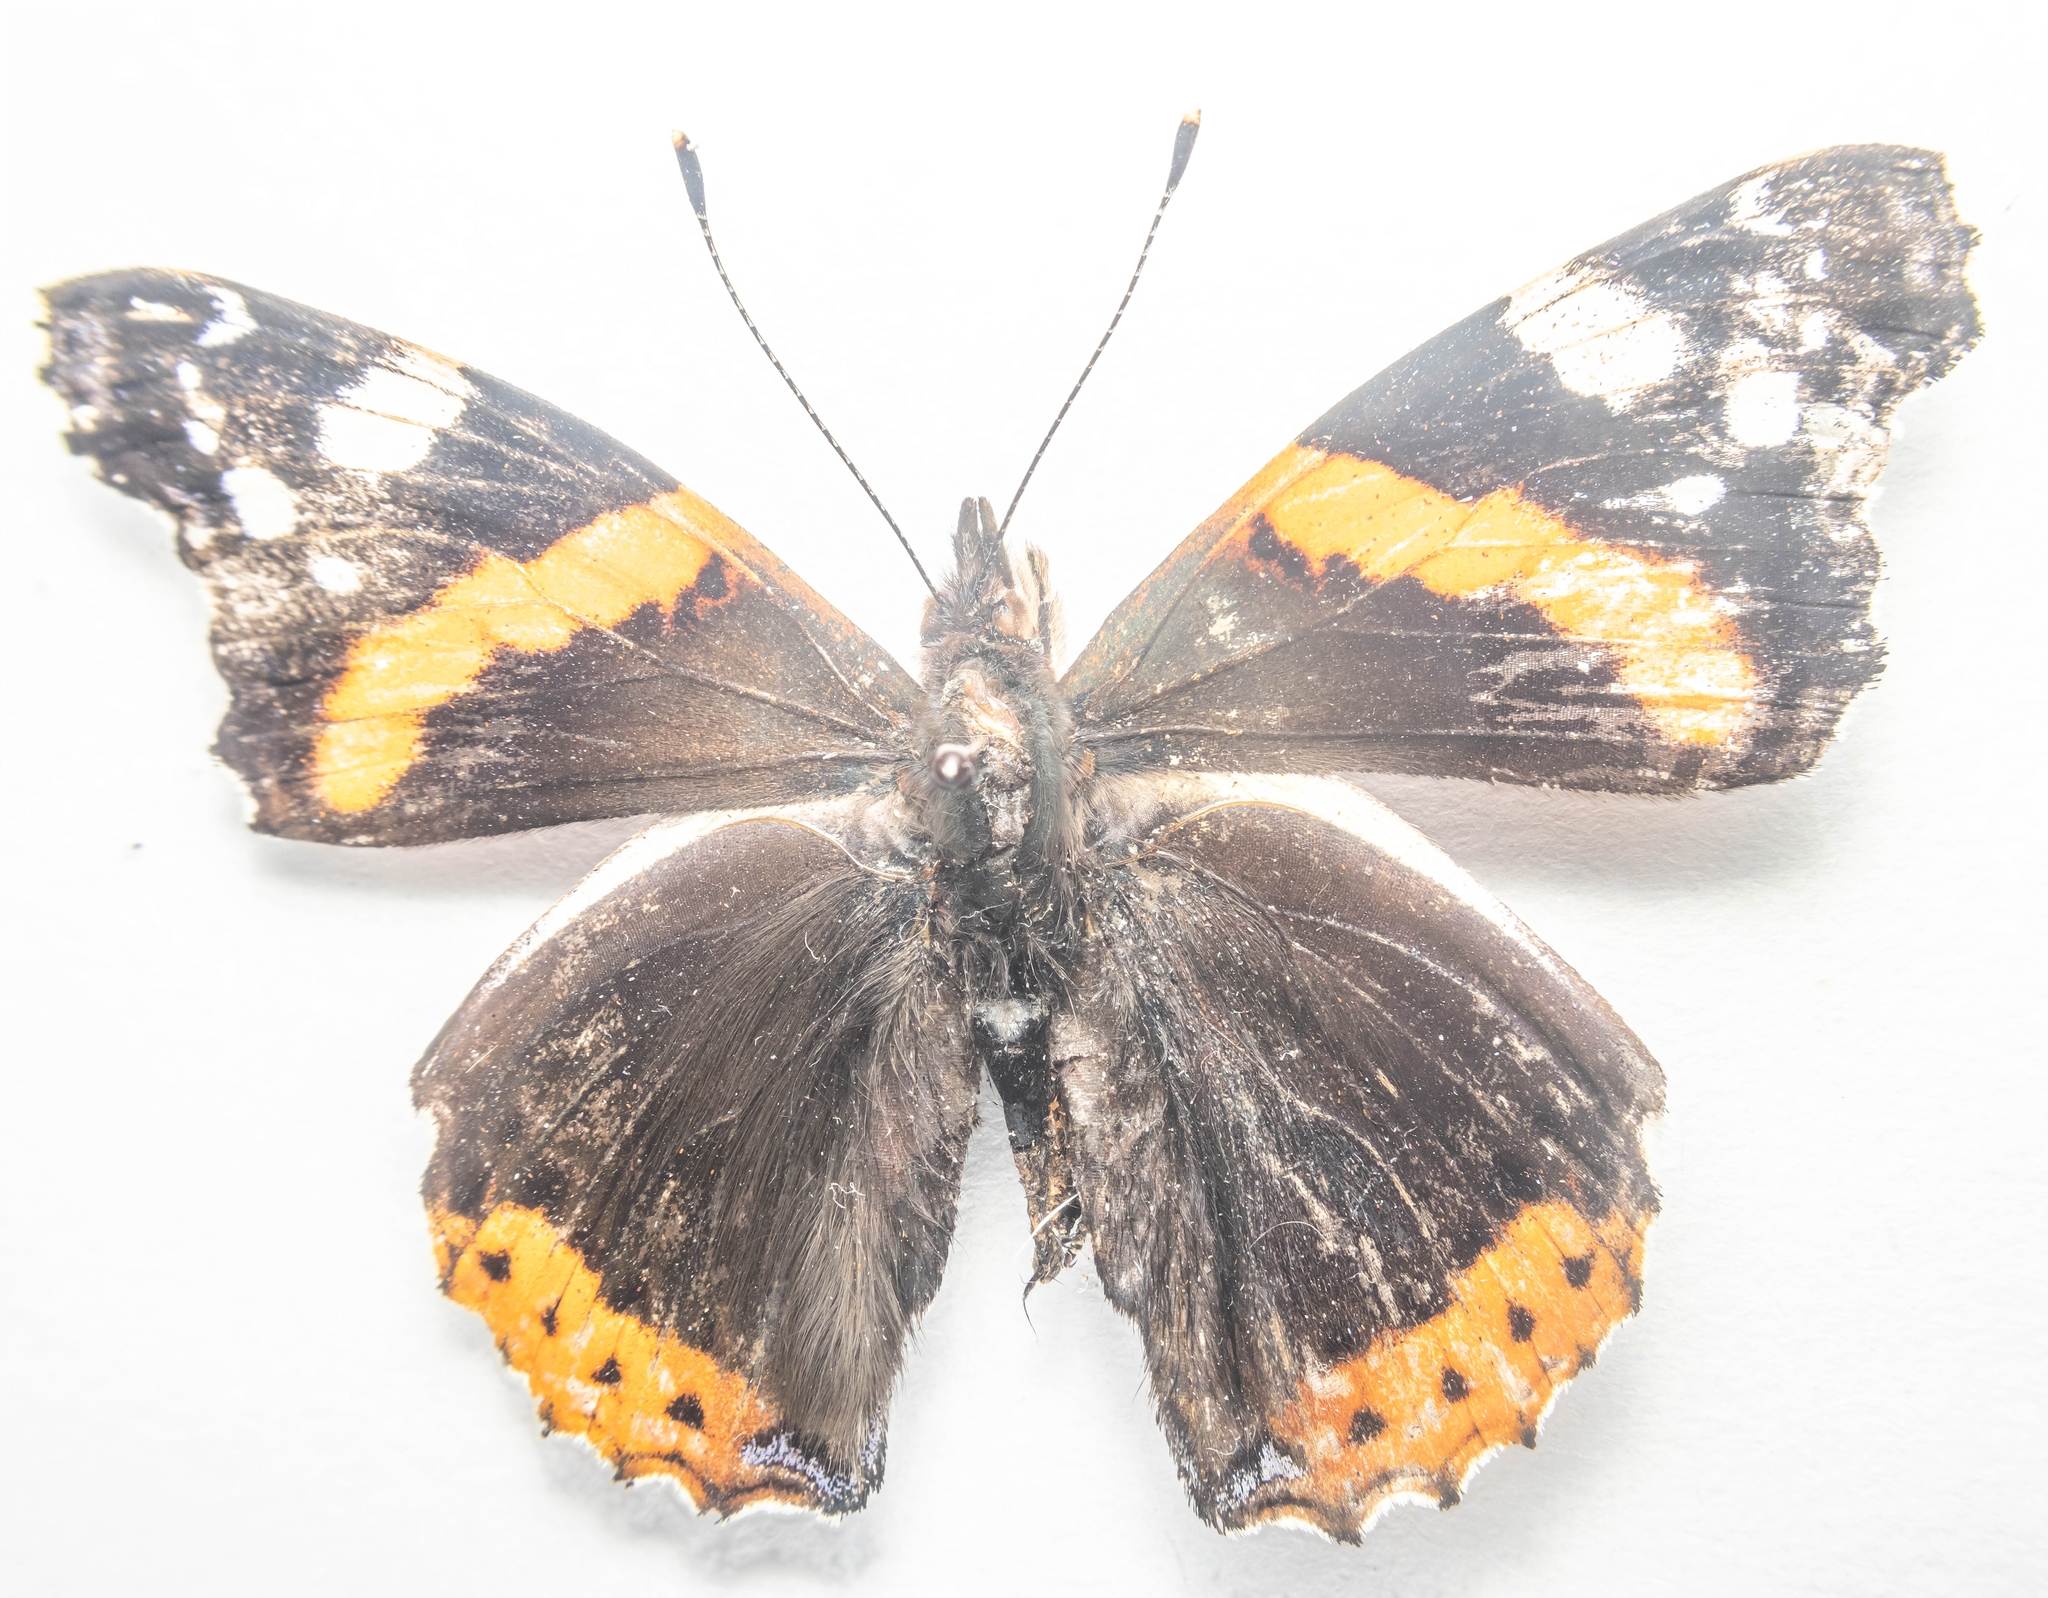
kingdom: Animalia
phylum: Arthropoda
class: Insecta
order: Lepidoptera
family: Nymphalidae
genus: Vanessa
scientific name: Vanessa atalanta
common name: Red admiral
